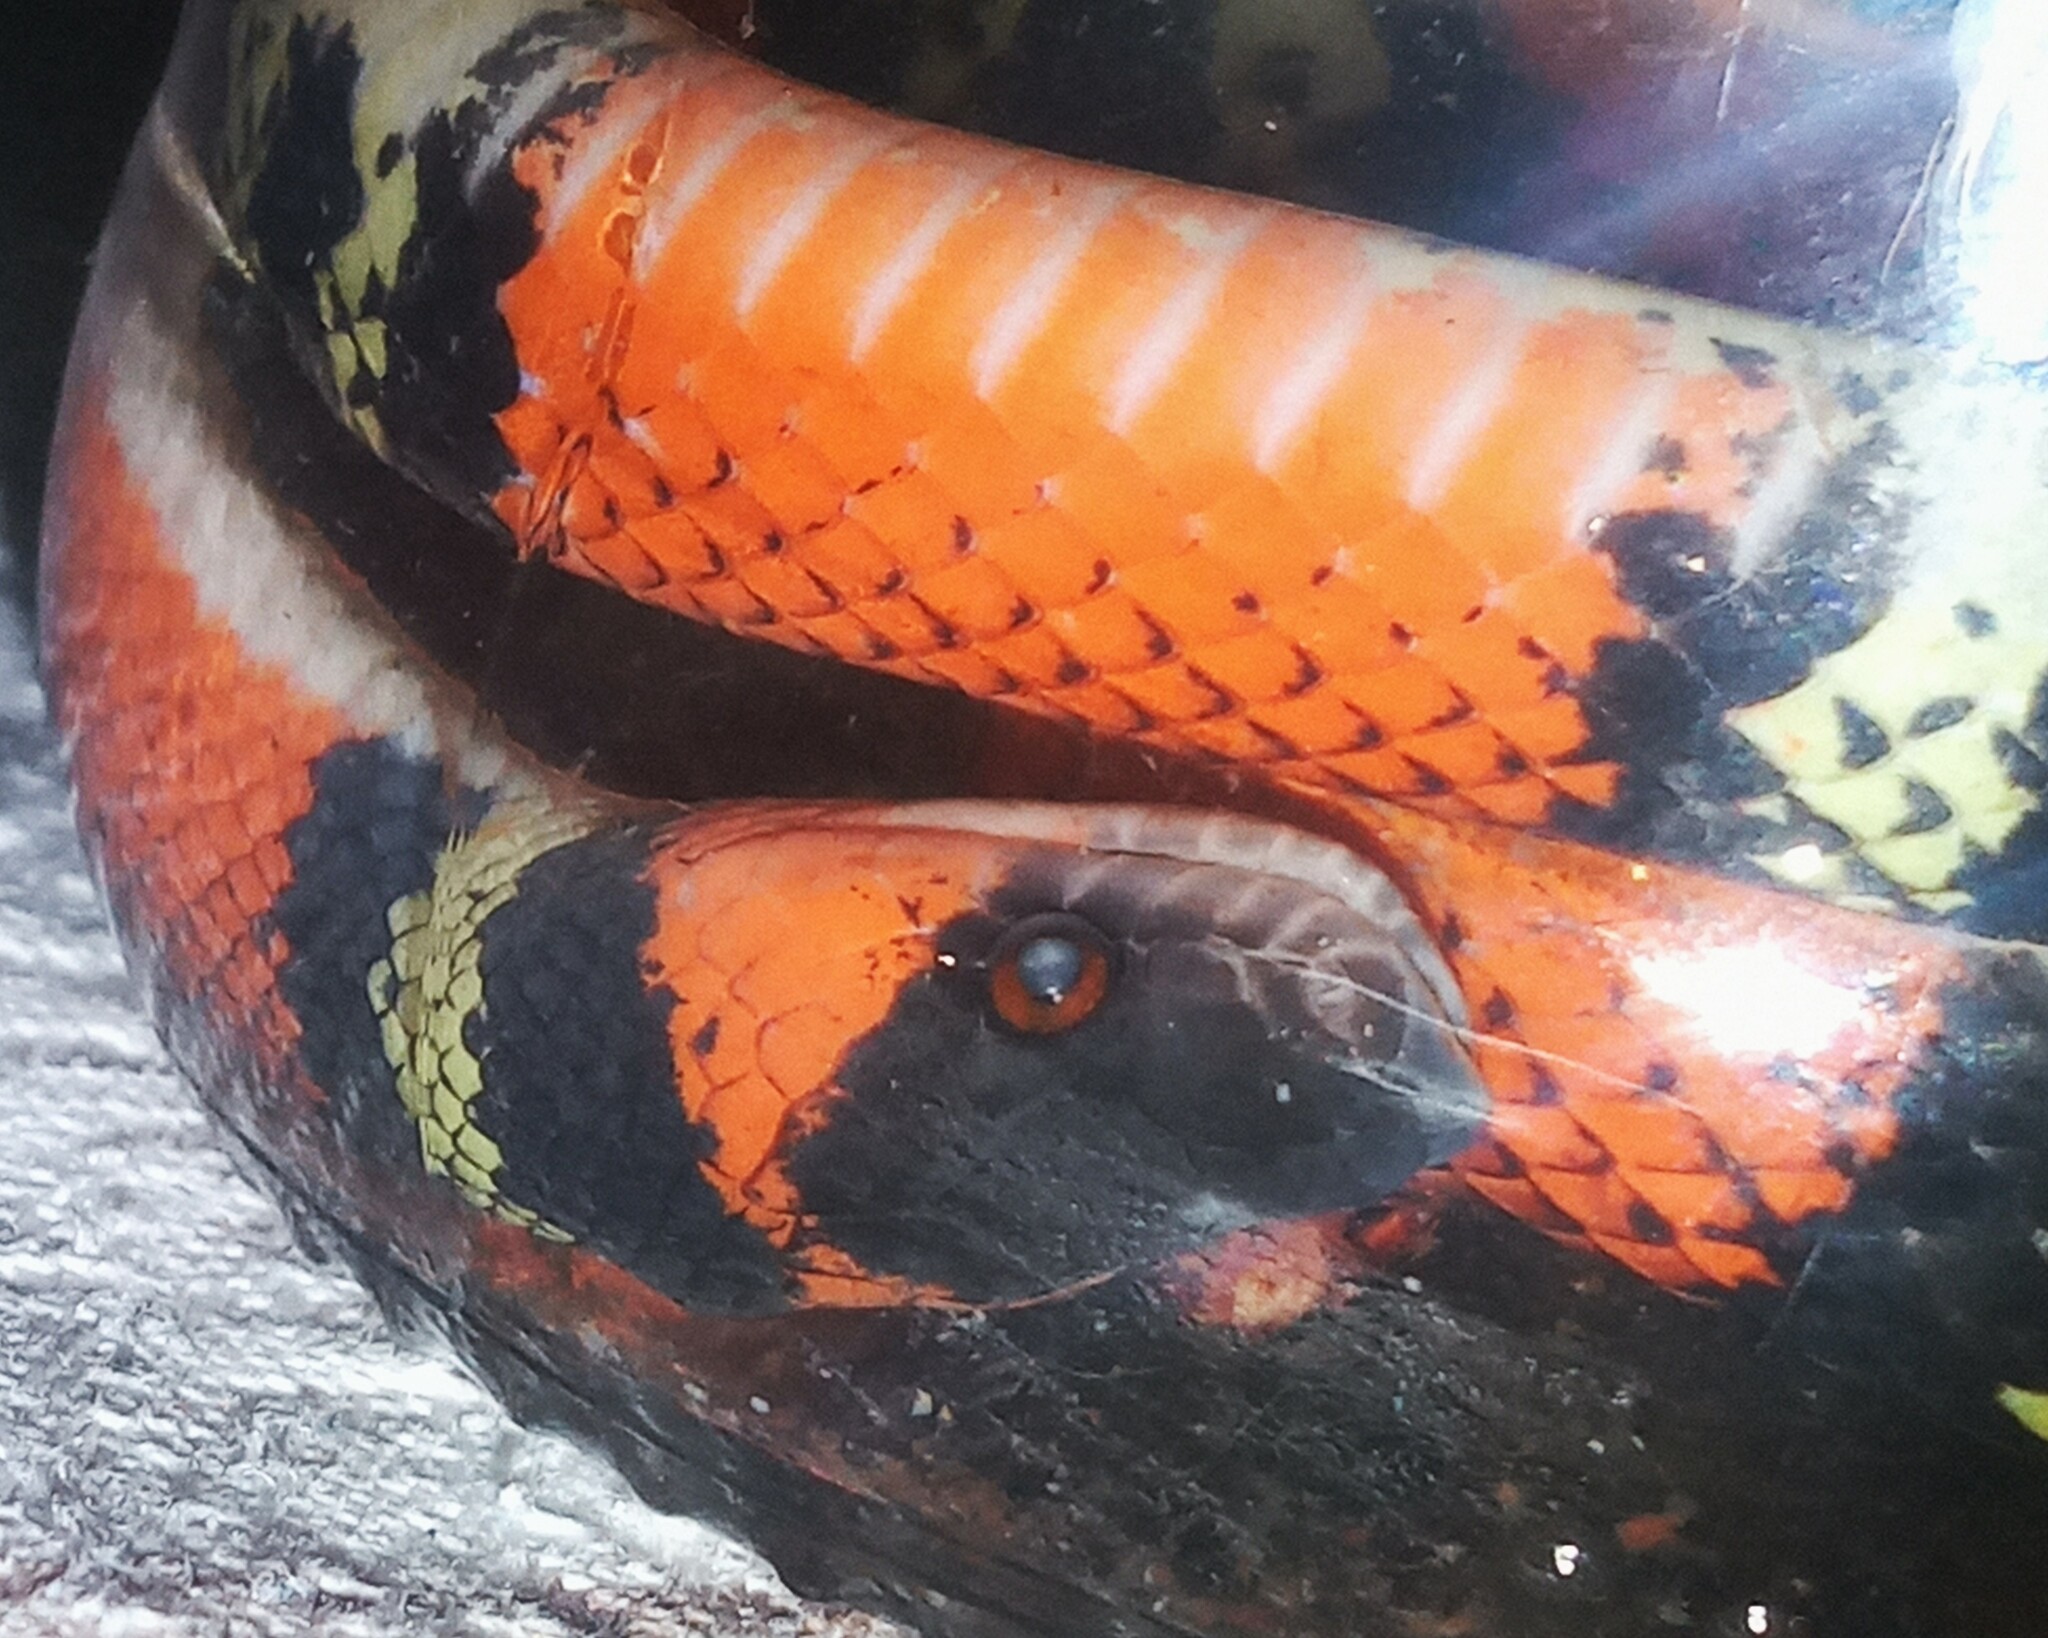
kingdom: Animalia
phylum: Chordata
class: Squamata
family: Colubridae
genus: Oxyrhopus
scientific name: Oxyrhopus guibei
